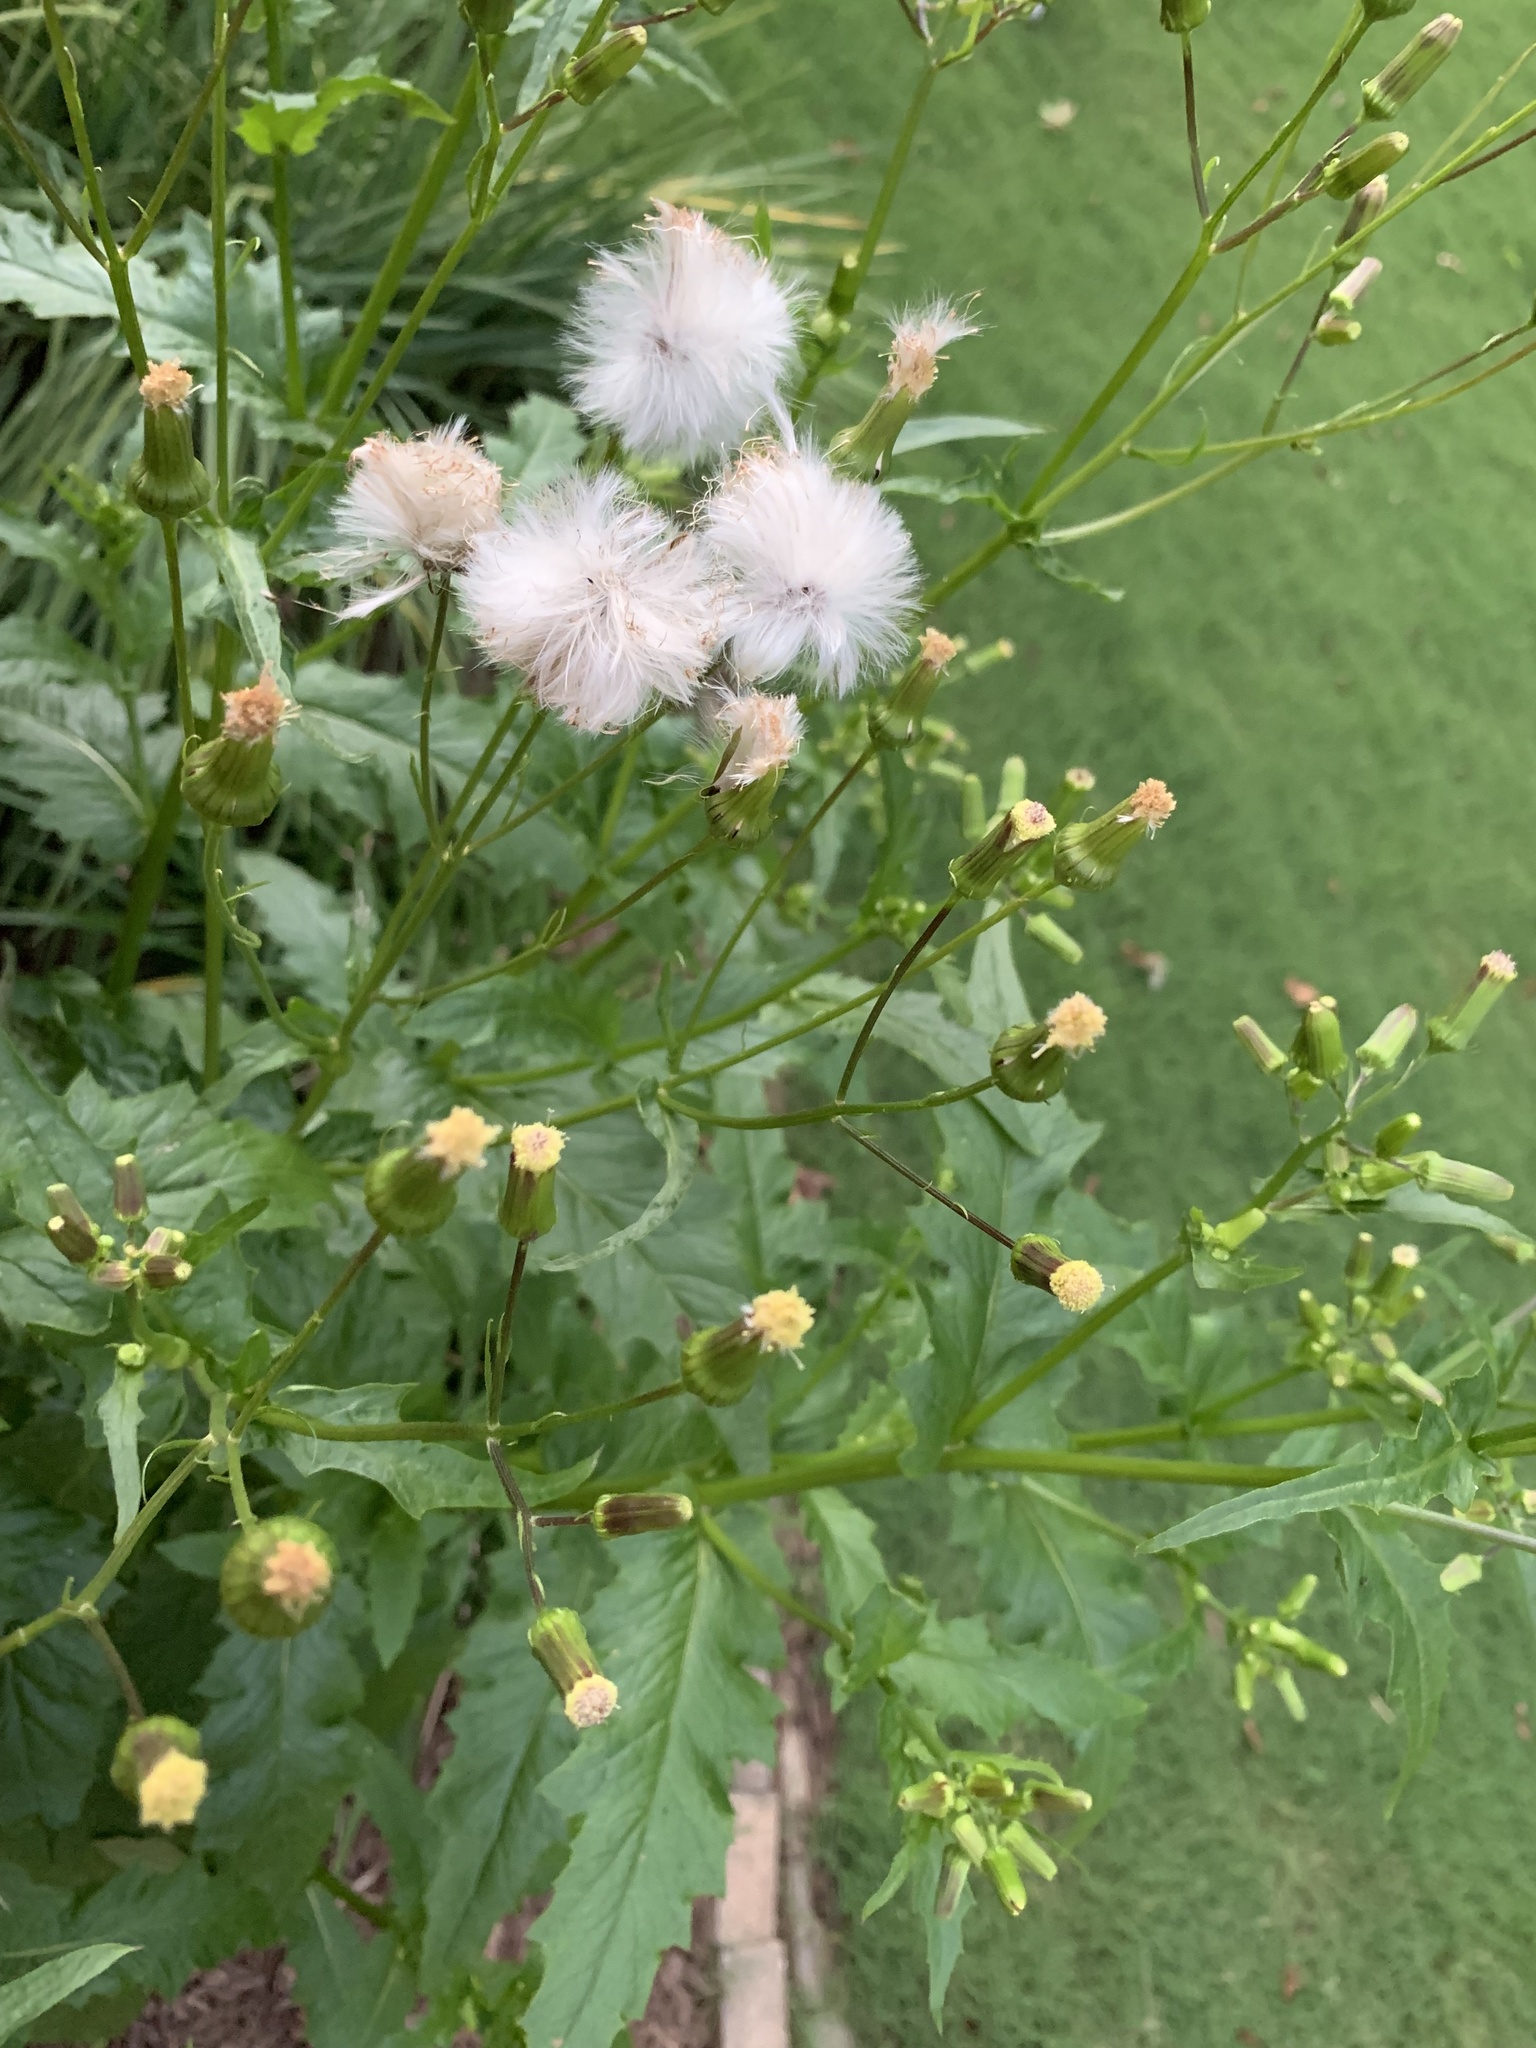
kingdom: Plantae
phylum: Tracheophyta
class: Magnoliopsida
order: Asterales
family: Asteraceae
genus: Erechtites
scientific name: Erechtites hieraciifolius
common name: American burnweed
